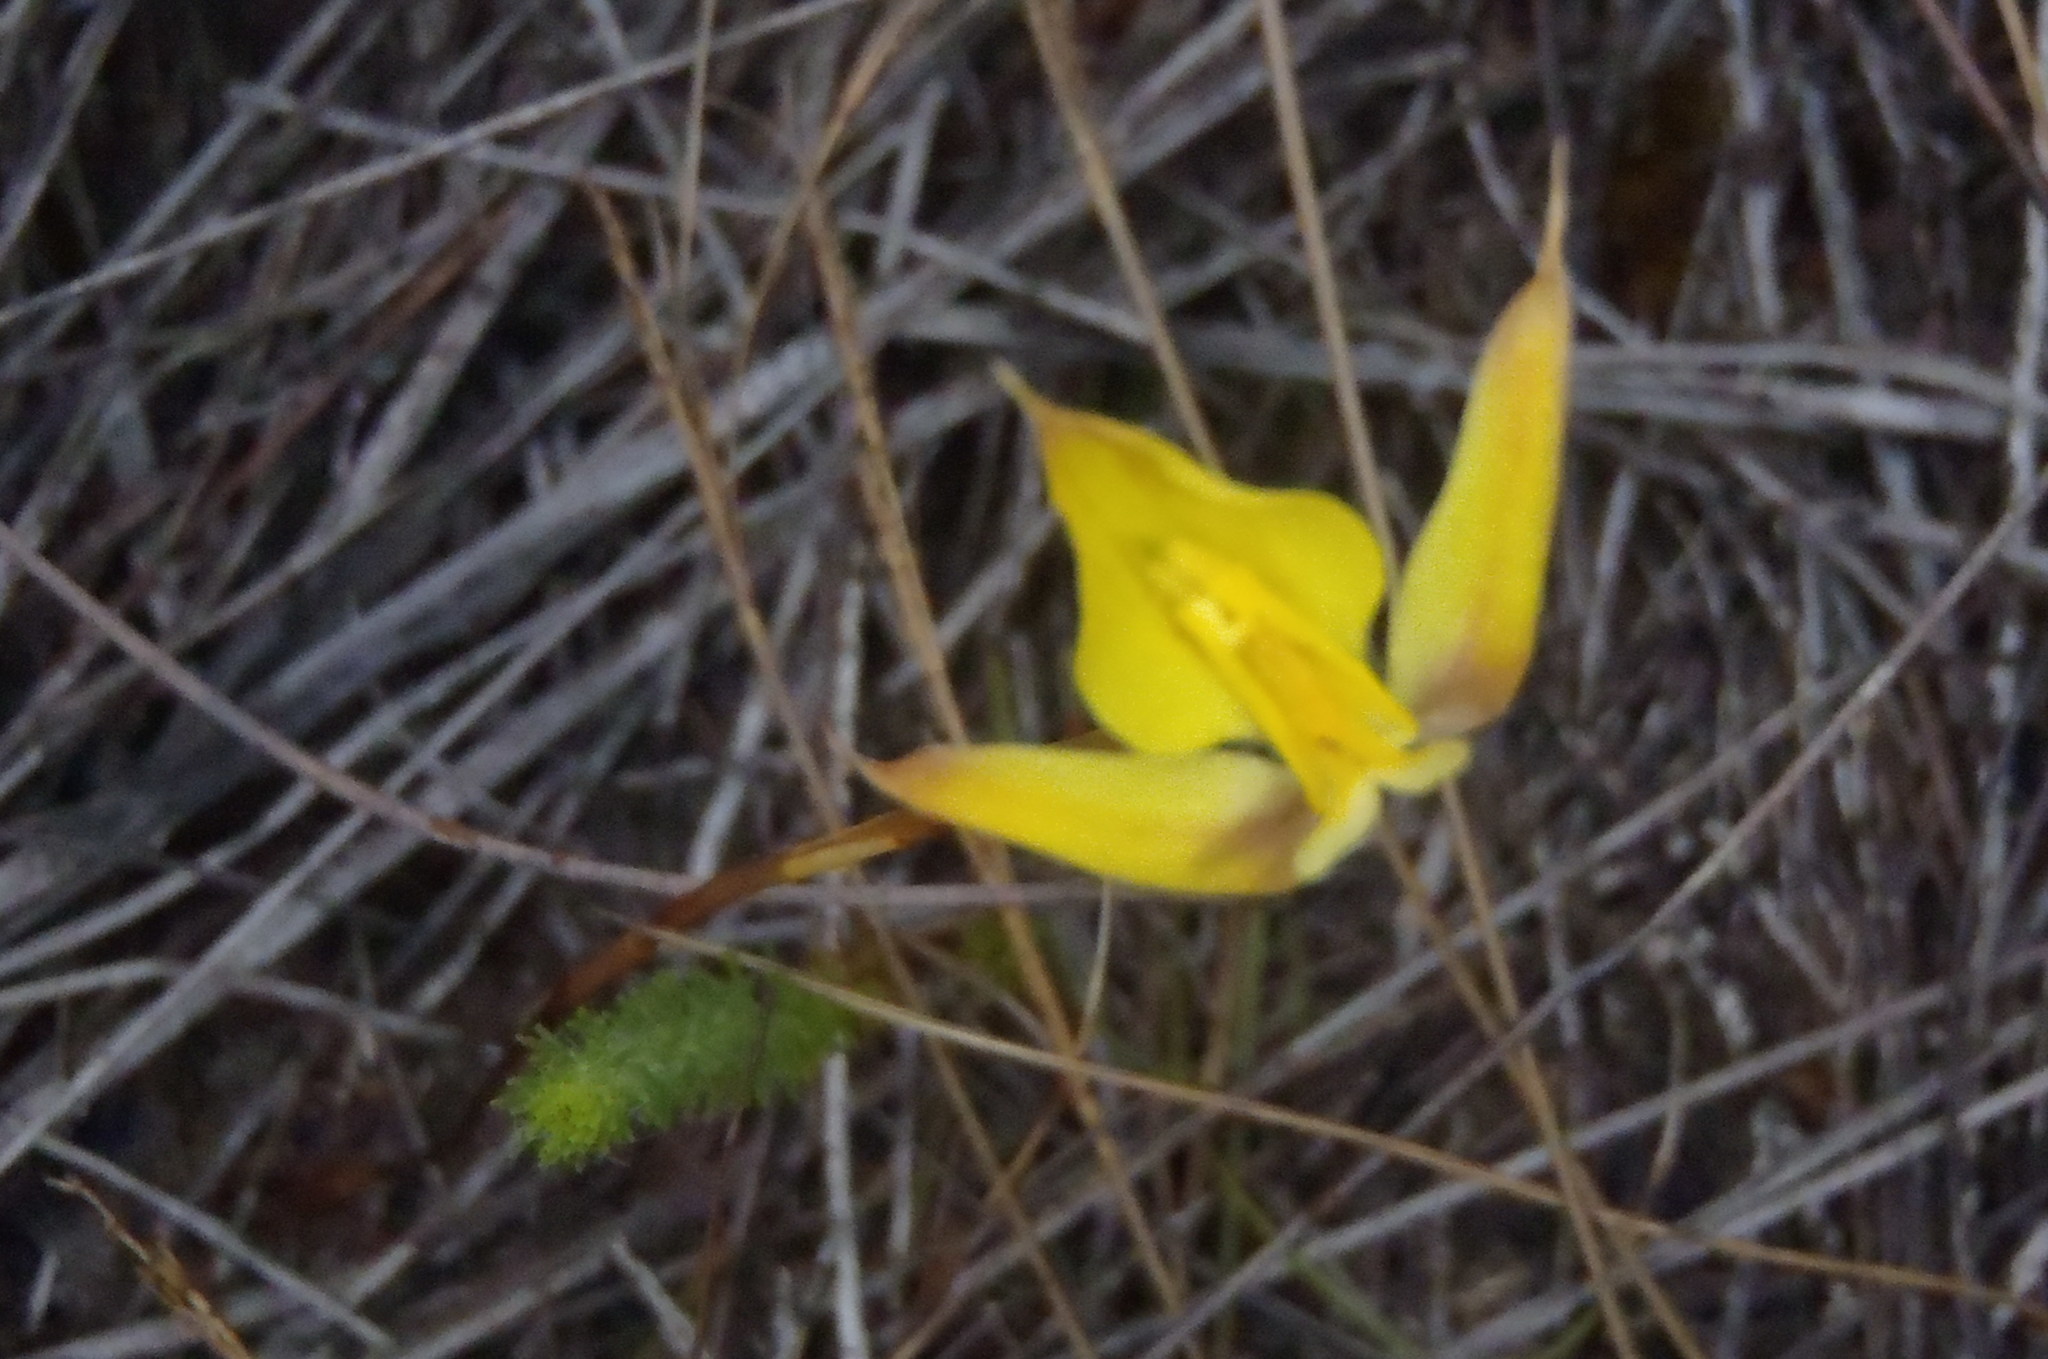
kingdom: Plantae
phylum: Tracheophyta
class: Liliopsida
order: Asparagales
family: Orchidaceae
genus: Disa
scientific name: Disa tenuifolia
